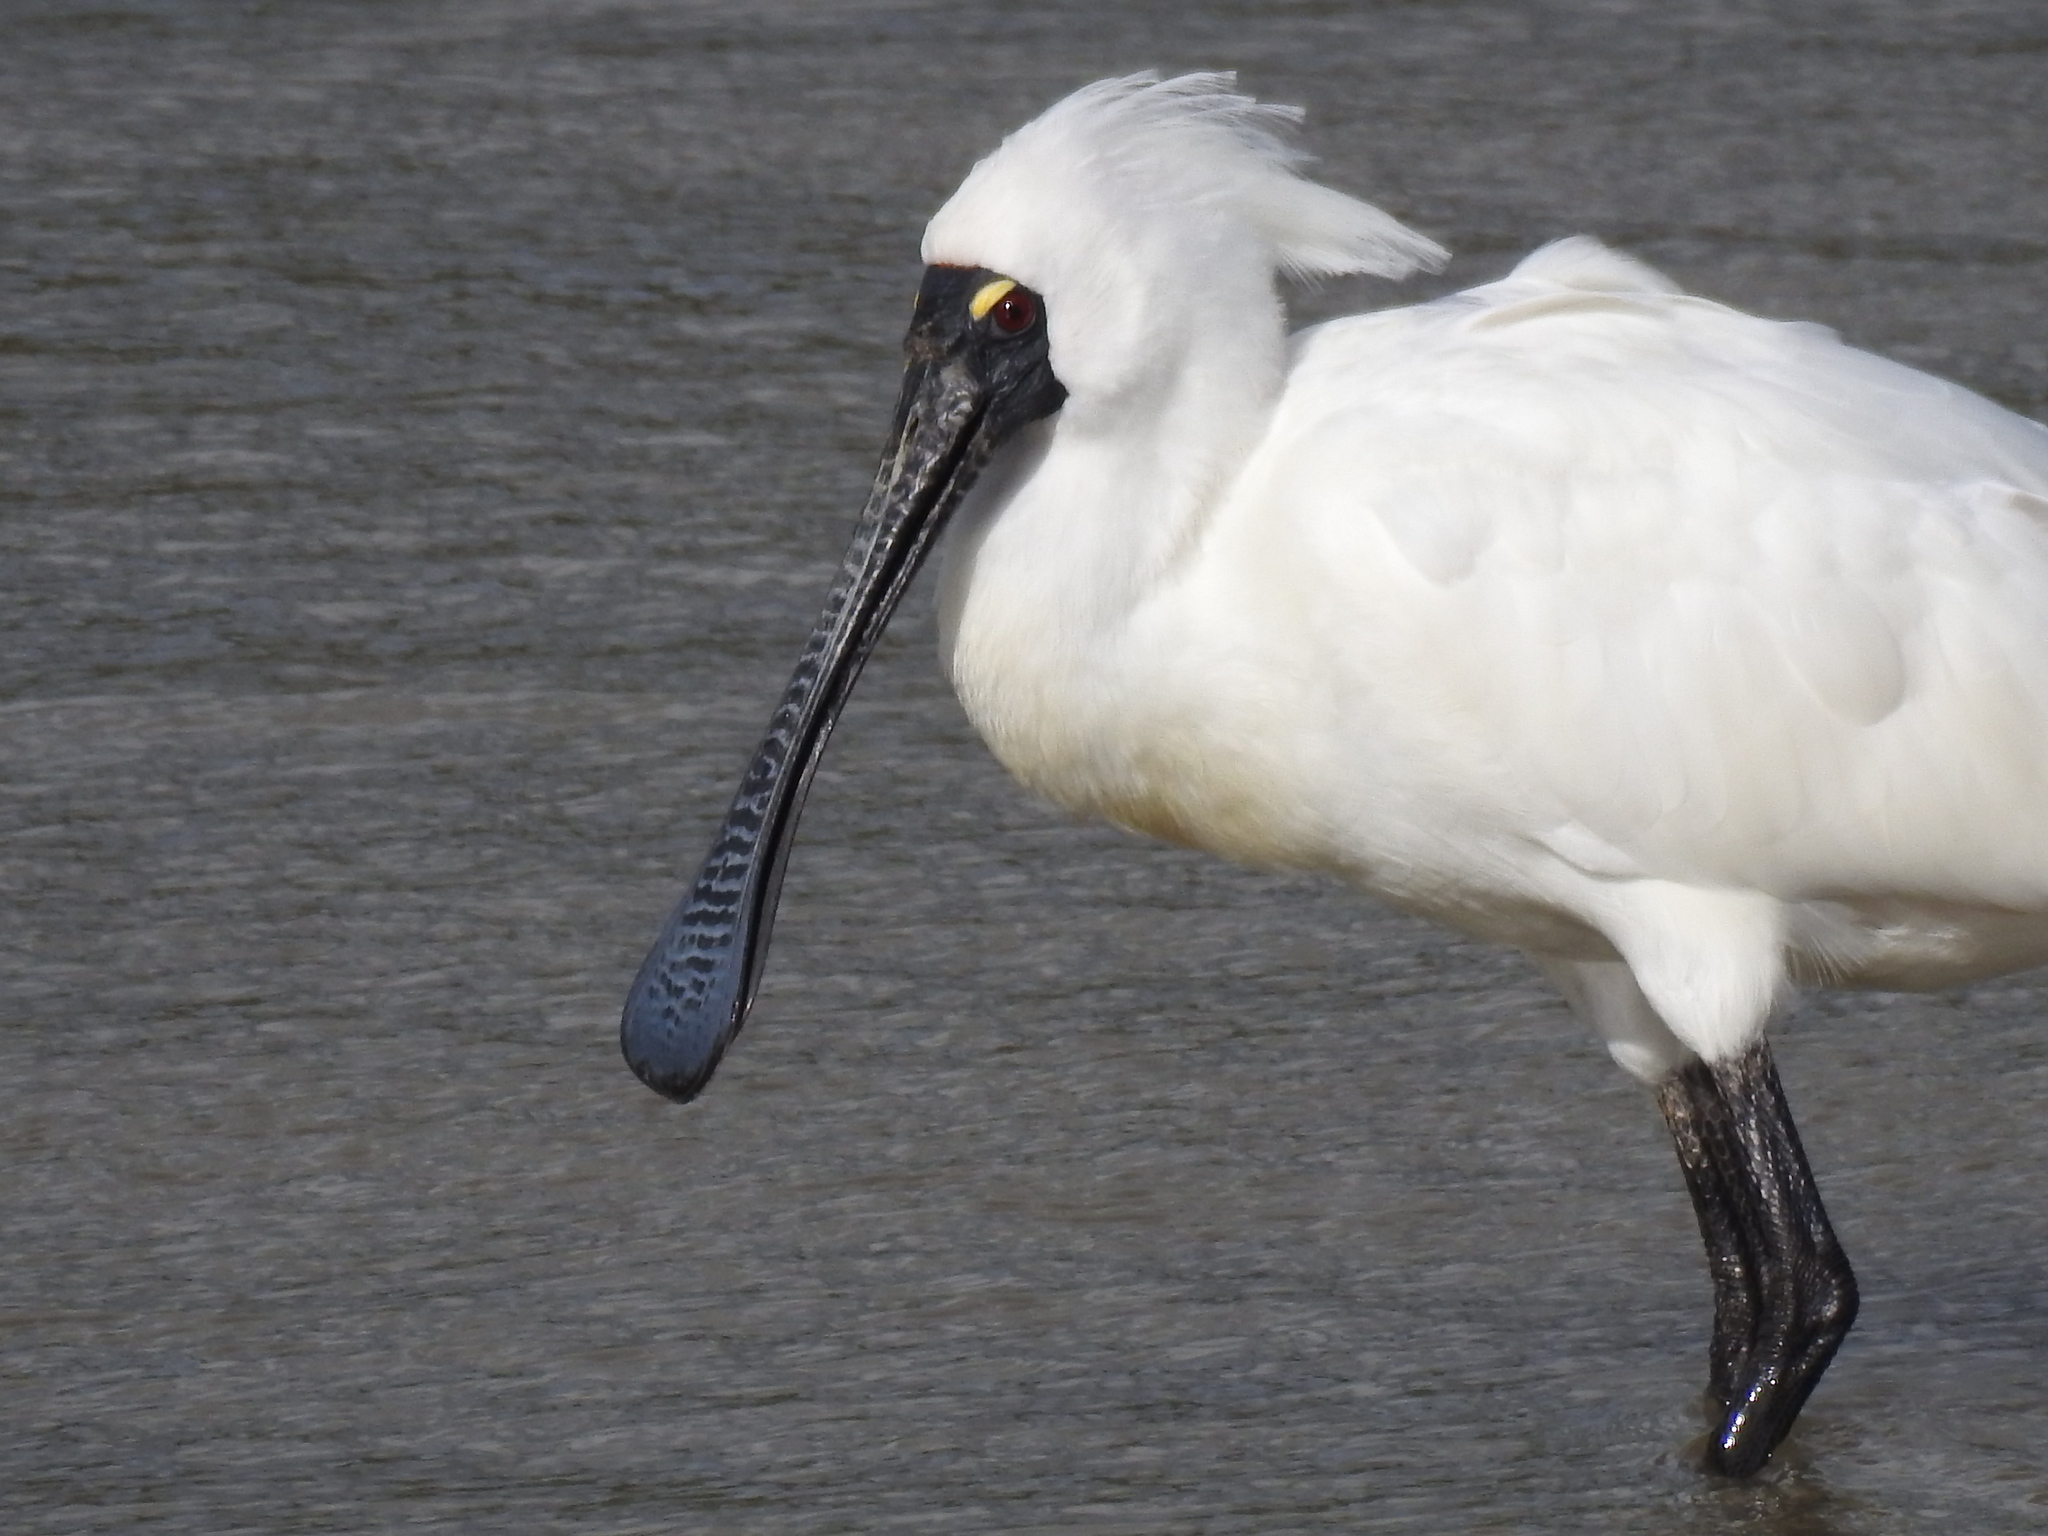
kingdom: Animalia
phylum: Chordata
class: Aves
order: Pelecaniformes
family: Threskiornithidae
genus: Platalea
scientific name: Platalea regia
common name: Royal spoonbill
